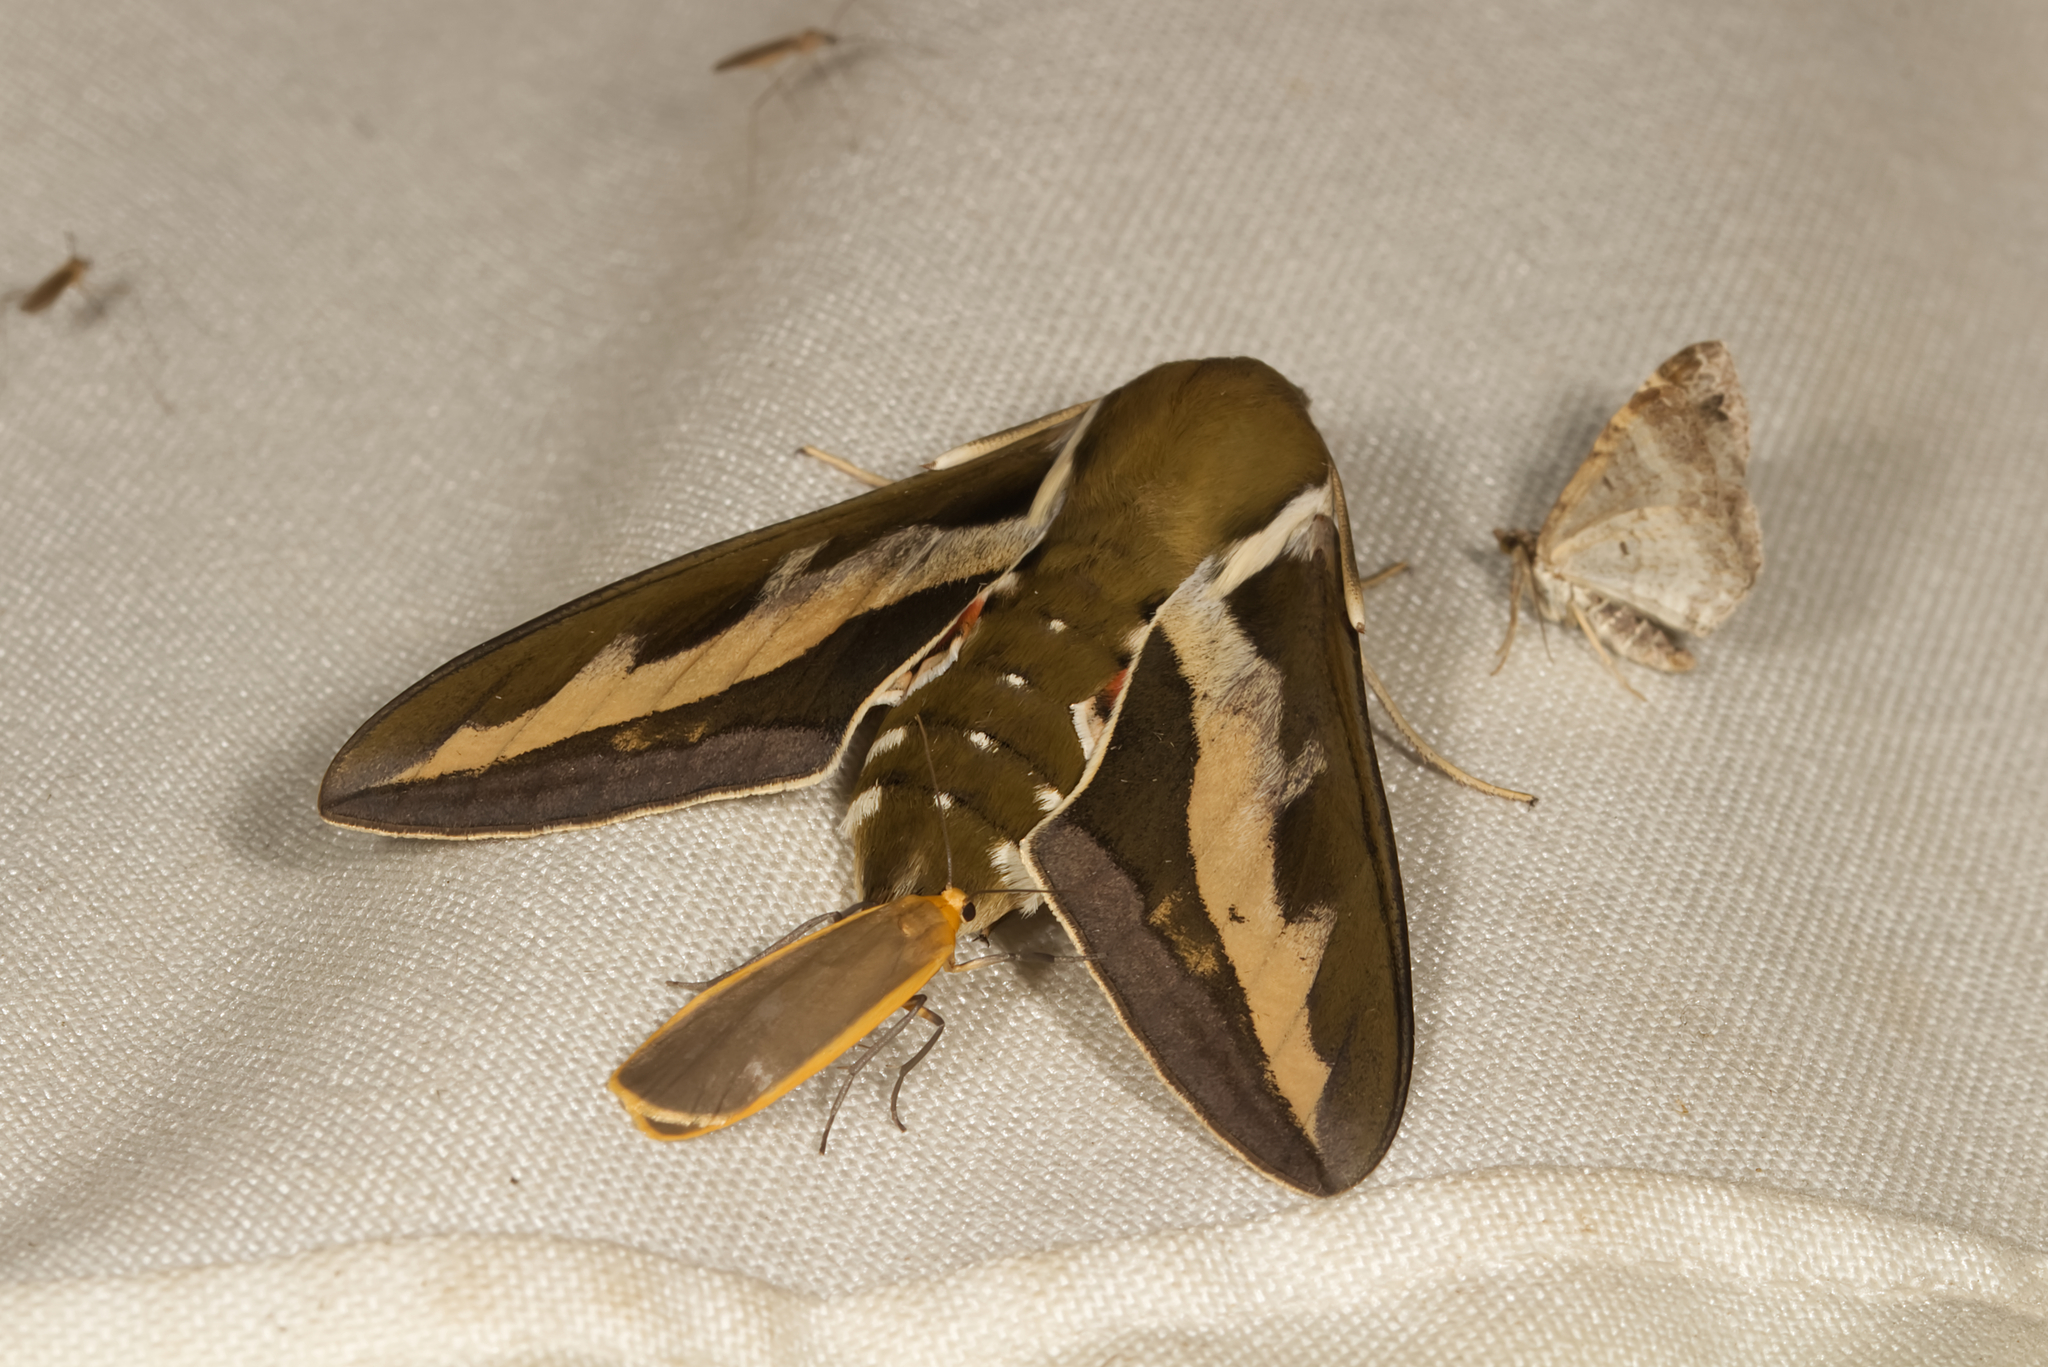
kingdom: Animalia
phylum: Arthropoda
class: Insecta
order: Lepidoptera
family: Sphingidae
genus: Hyles
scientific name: Hyles gallii
